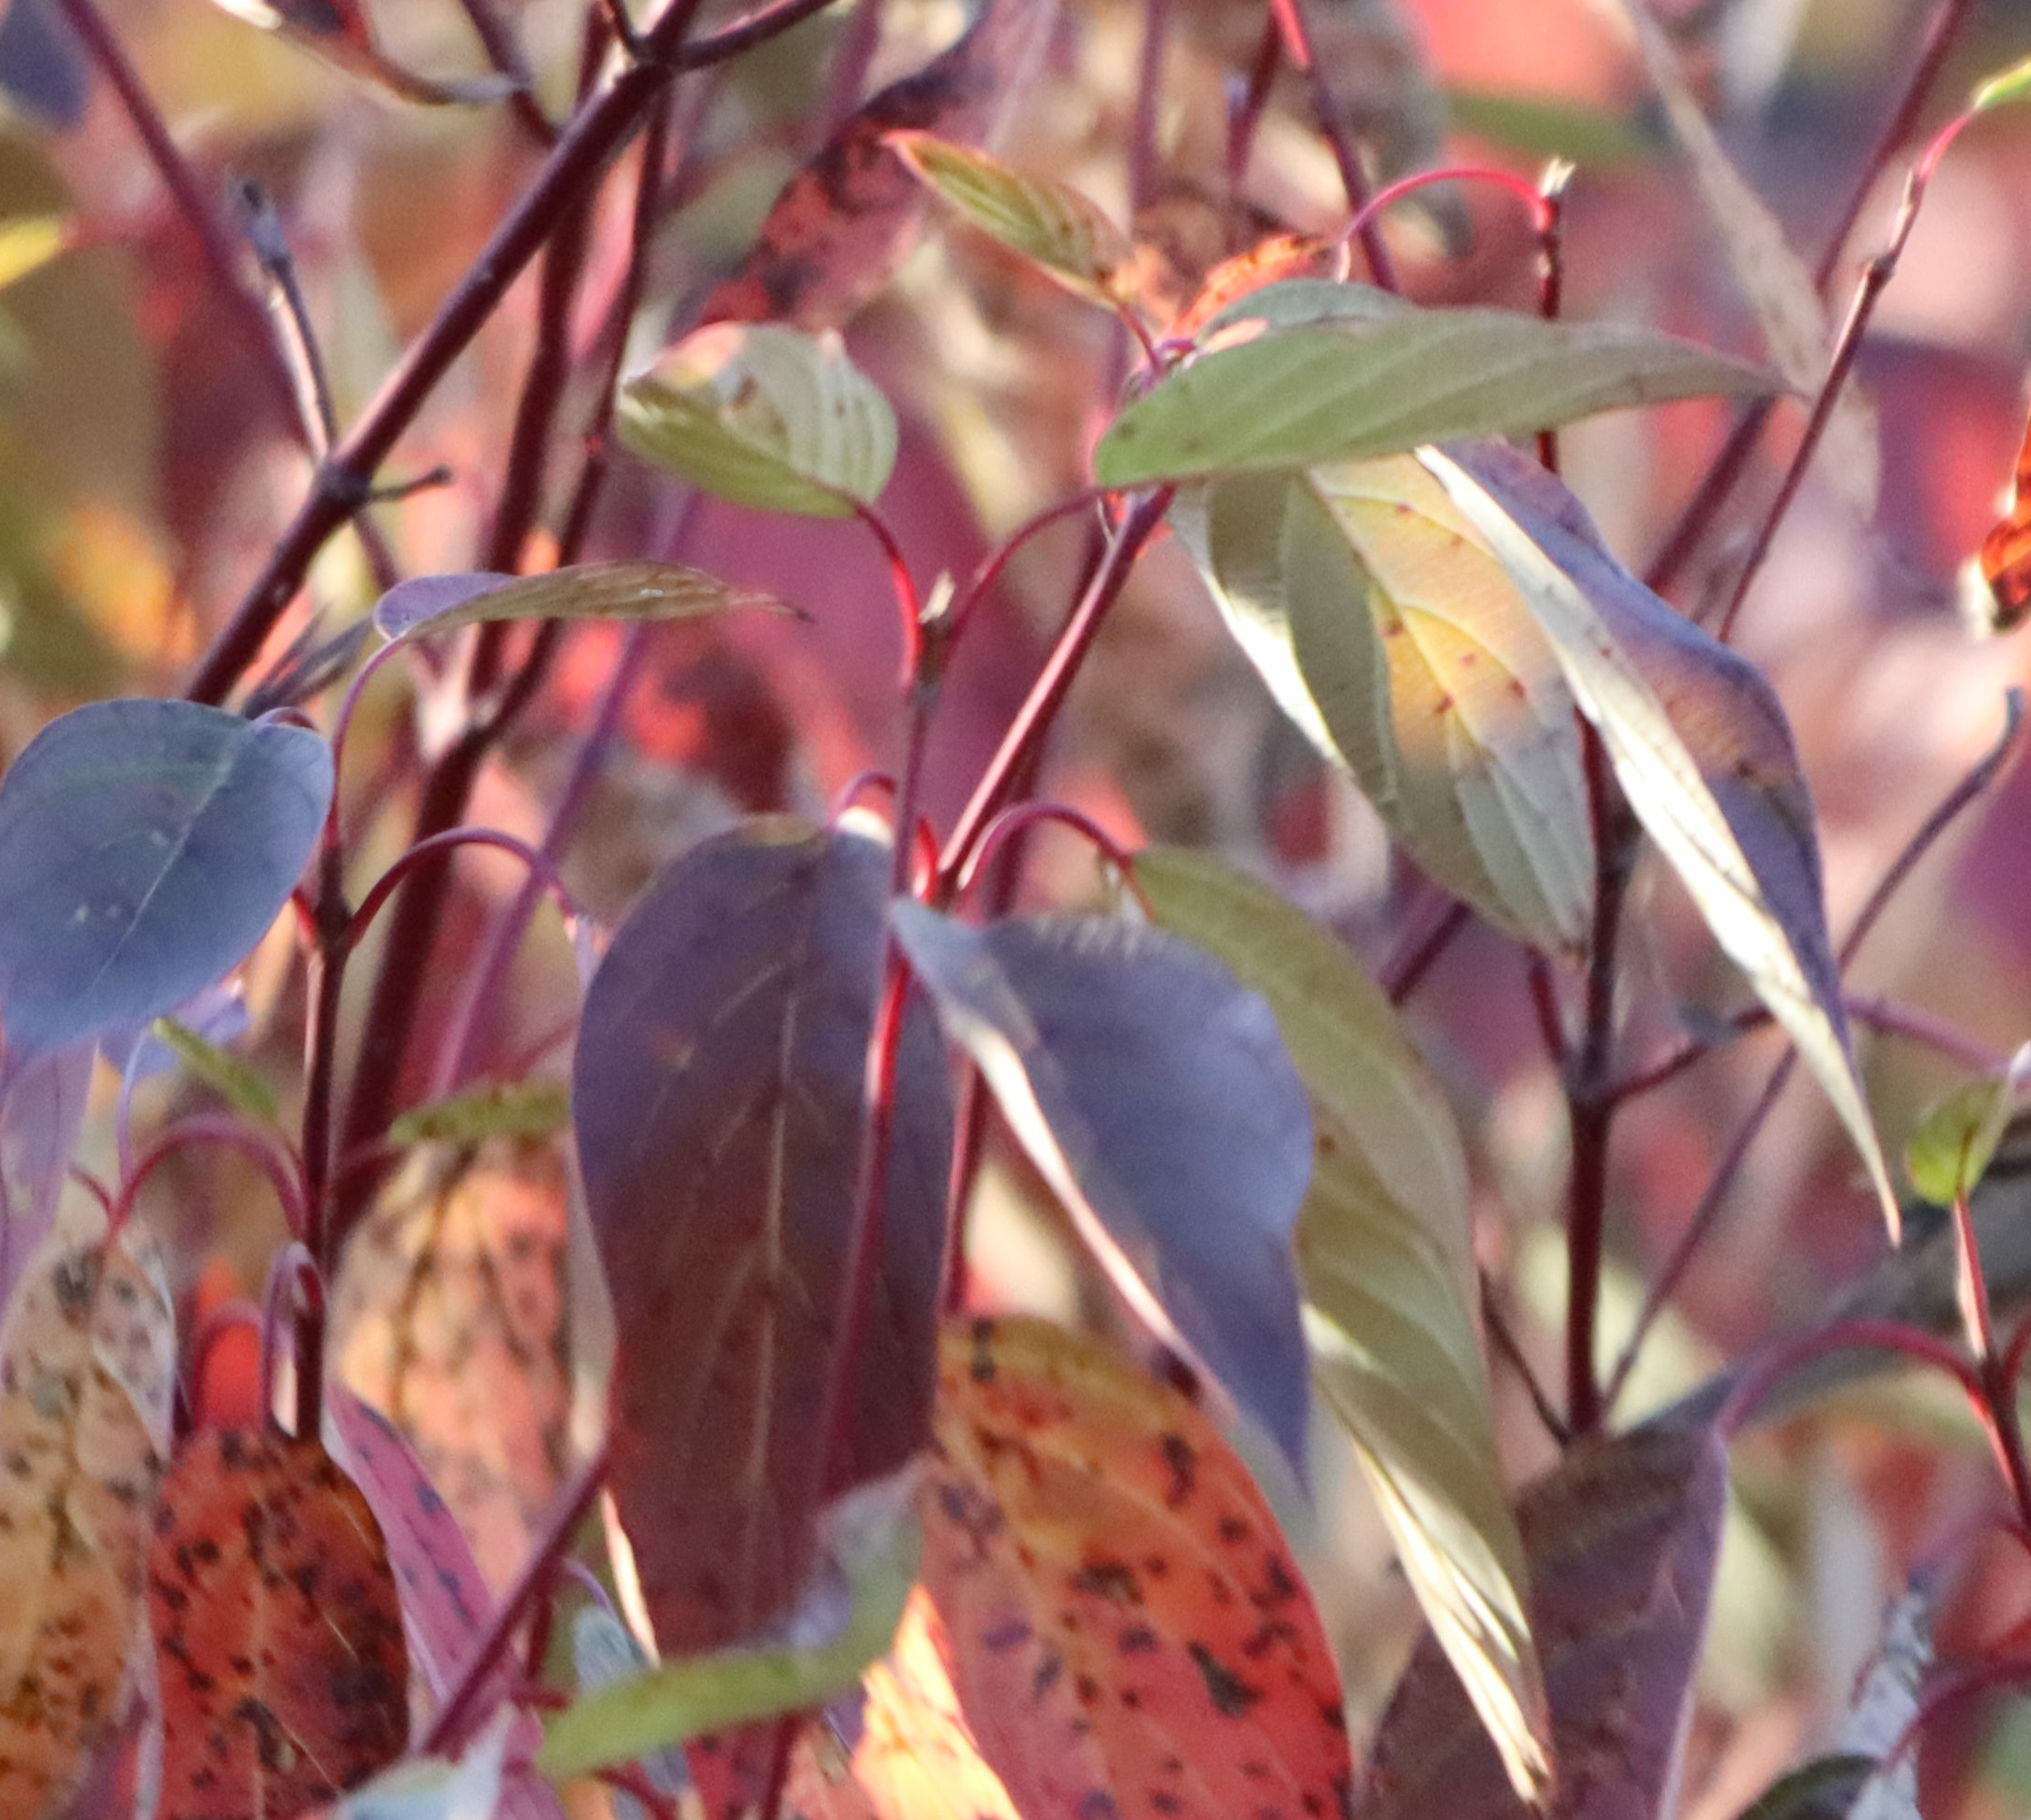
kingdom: Plantae
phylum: Tracheophyta
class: Magnoliopsida
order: Cornales
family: Cornaceae
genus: Cornus
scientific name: Cornus sericea
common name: Red-osier dogwood
